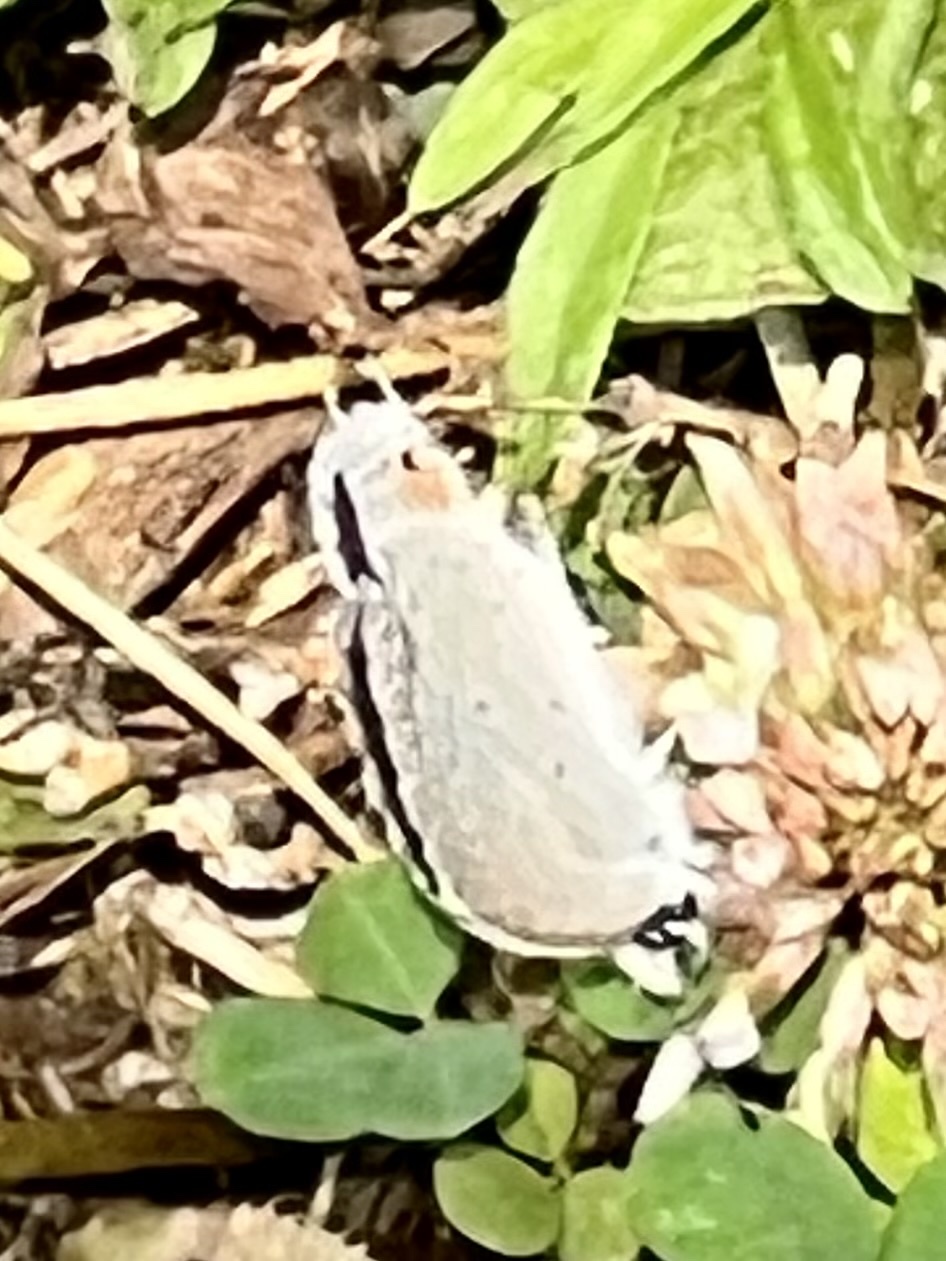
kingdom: Animalia
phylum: Arthropoda
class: Insecta
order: Lepidoptera
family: Lycaenidae
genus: Elkalyce
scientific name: Elkalyce comyntas
